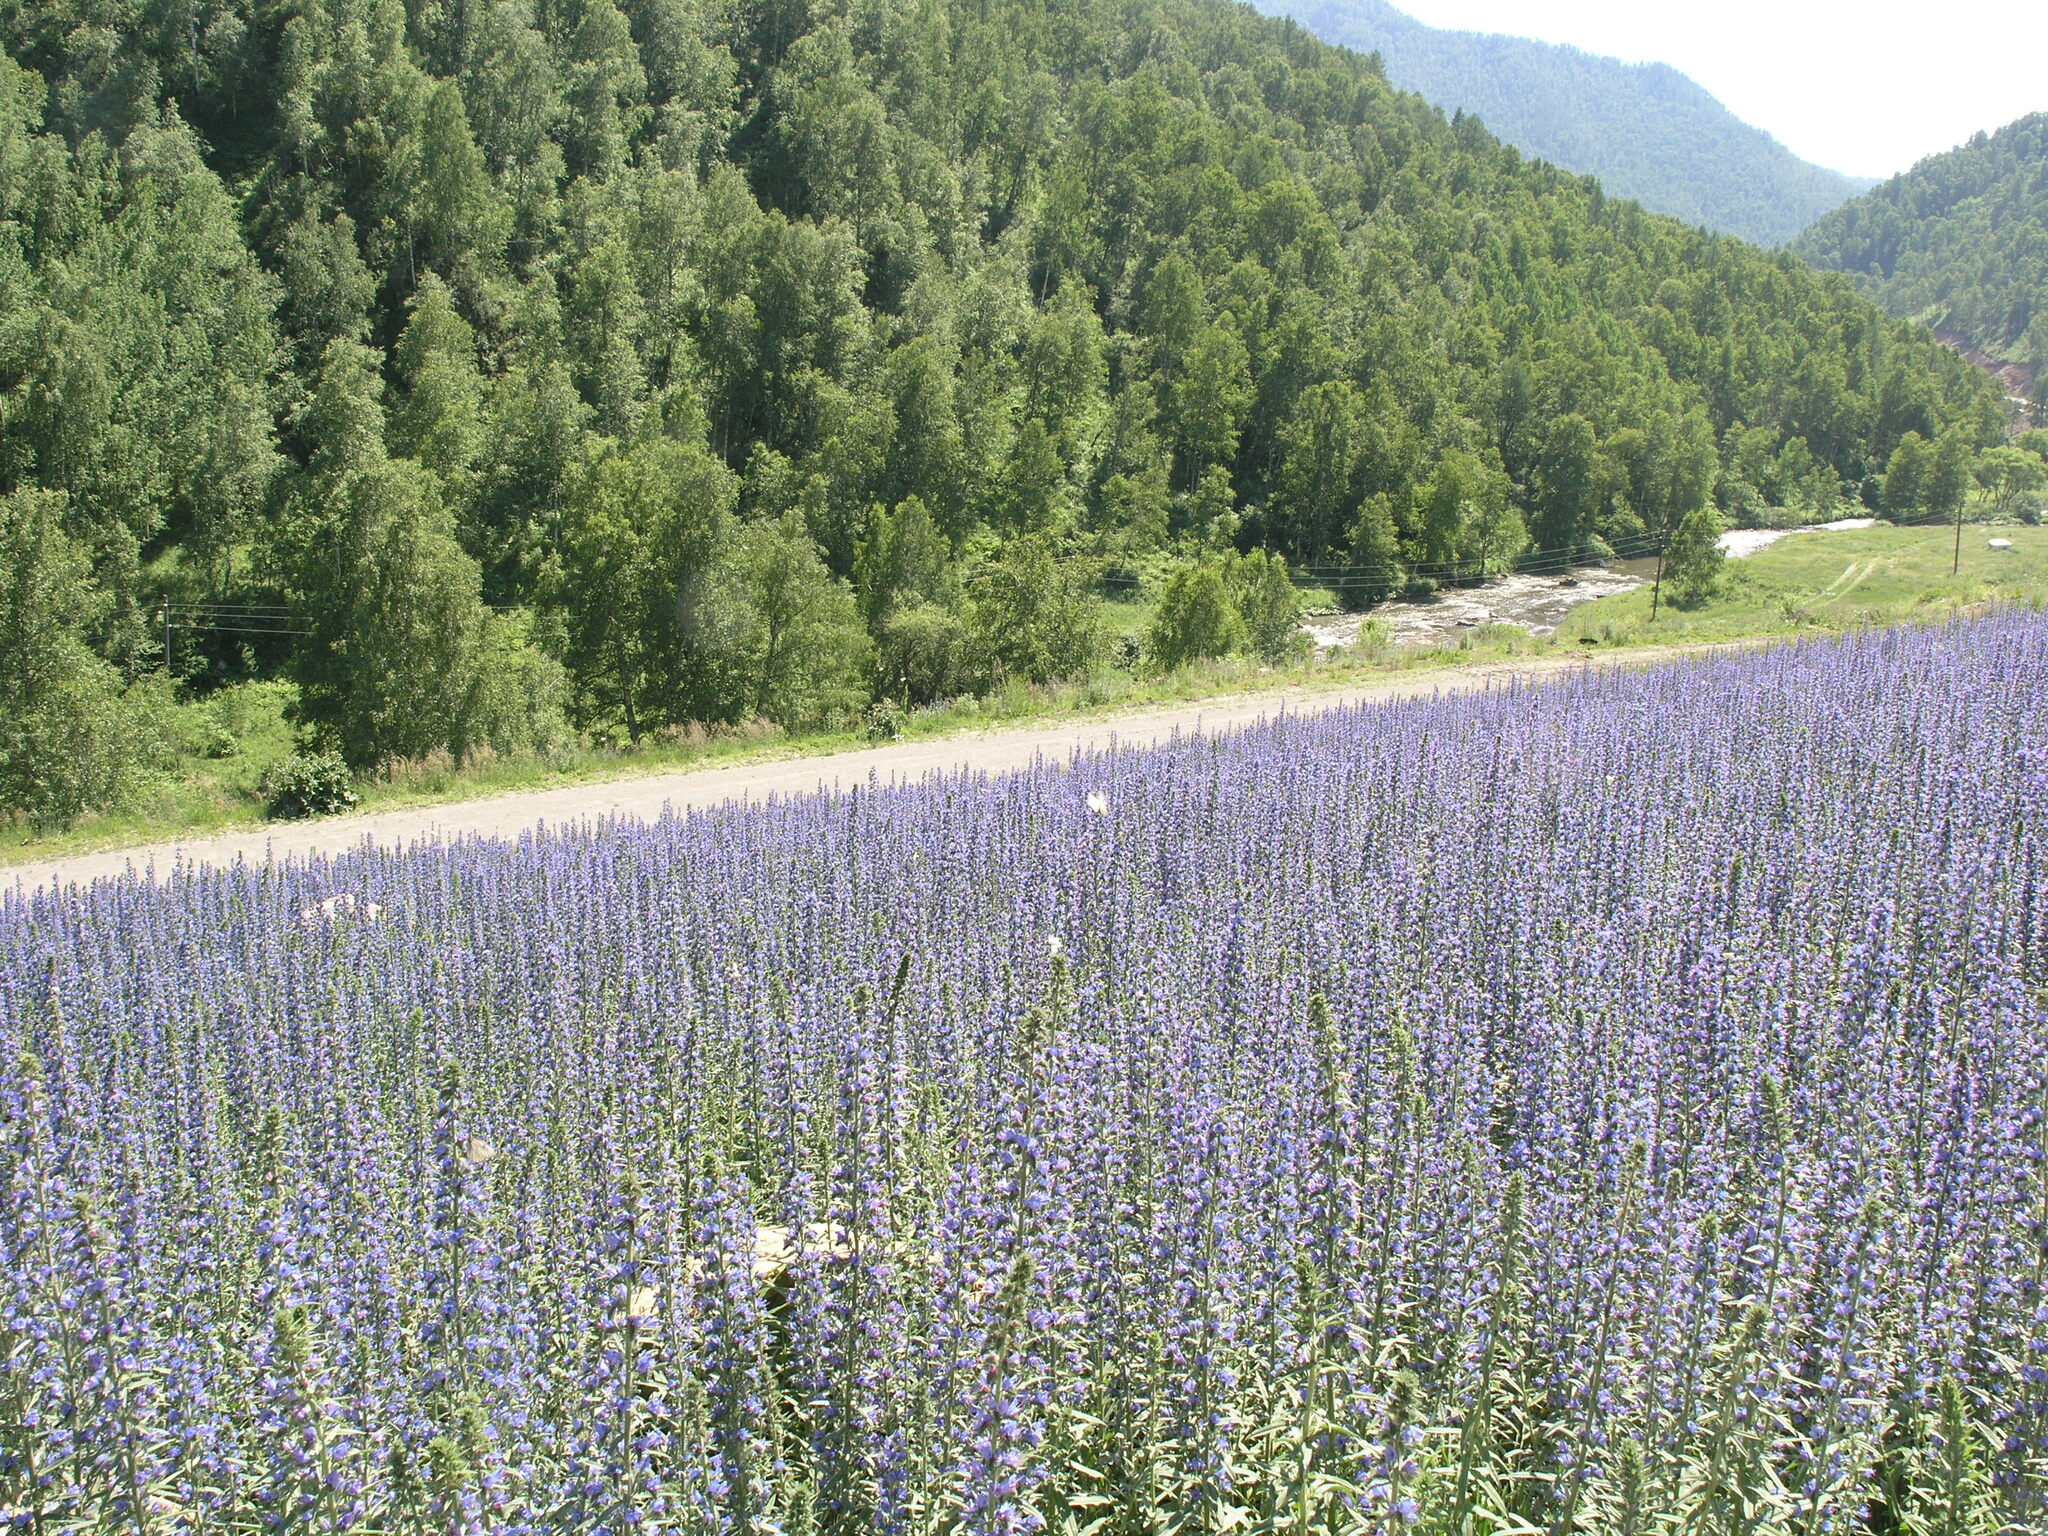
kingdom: Plantae
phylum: Tracheophyta
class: Magnoliopsida
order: Boraginales
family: Boraginaceae
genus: Echium
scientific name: Echium vulgare
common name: Common viper's bugloss
